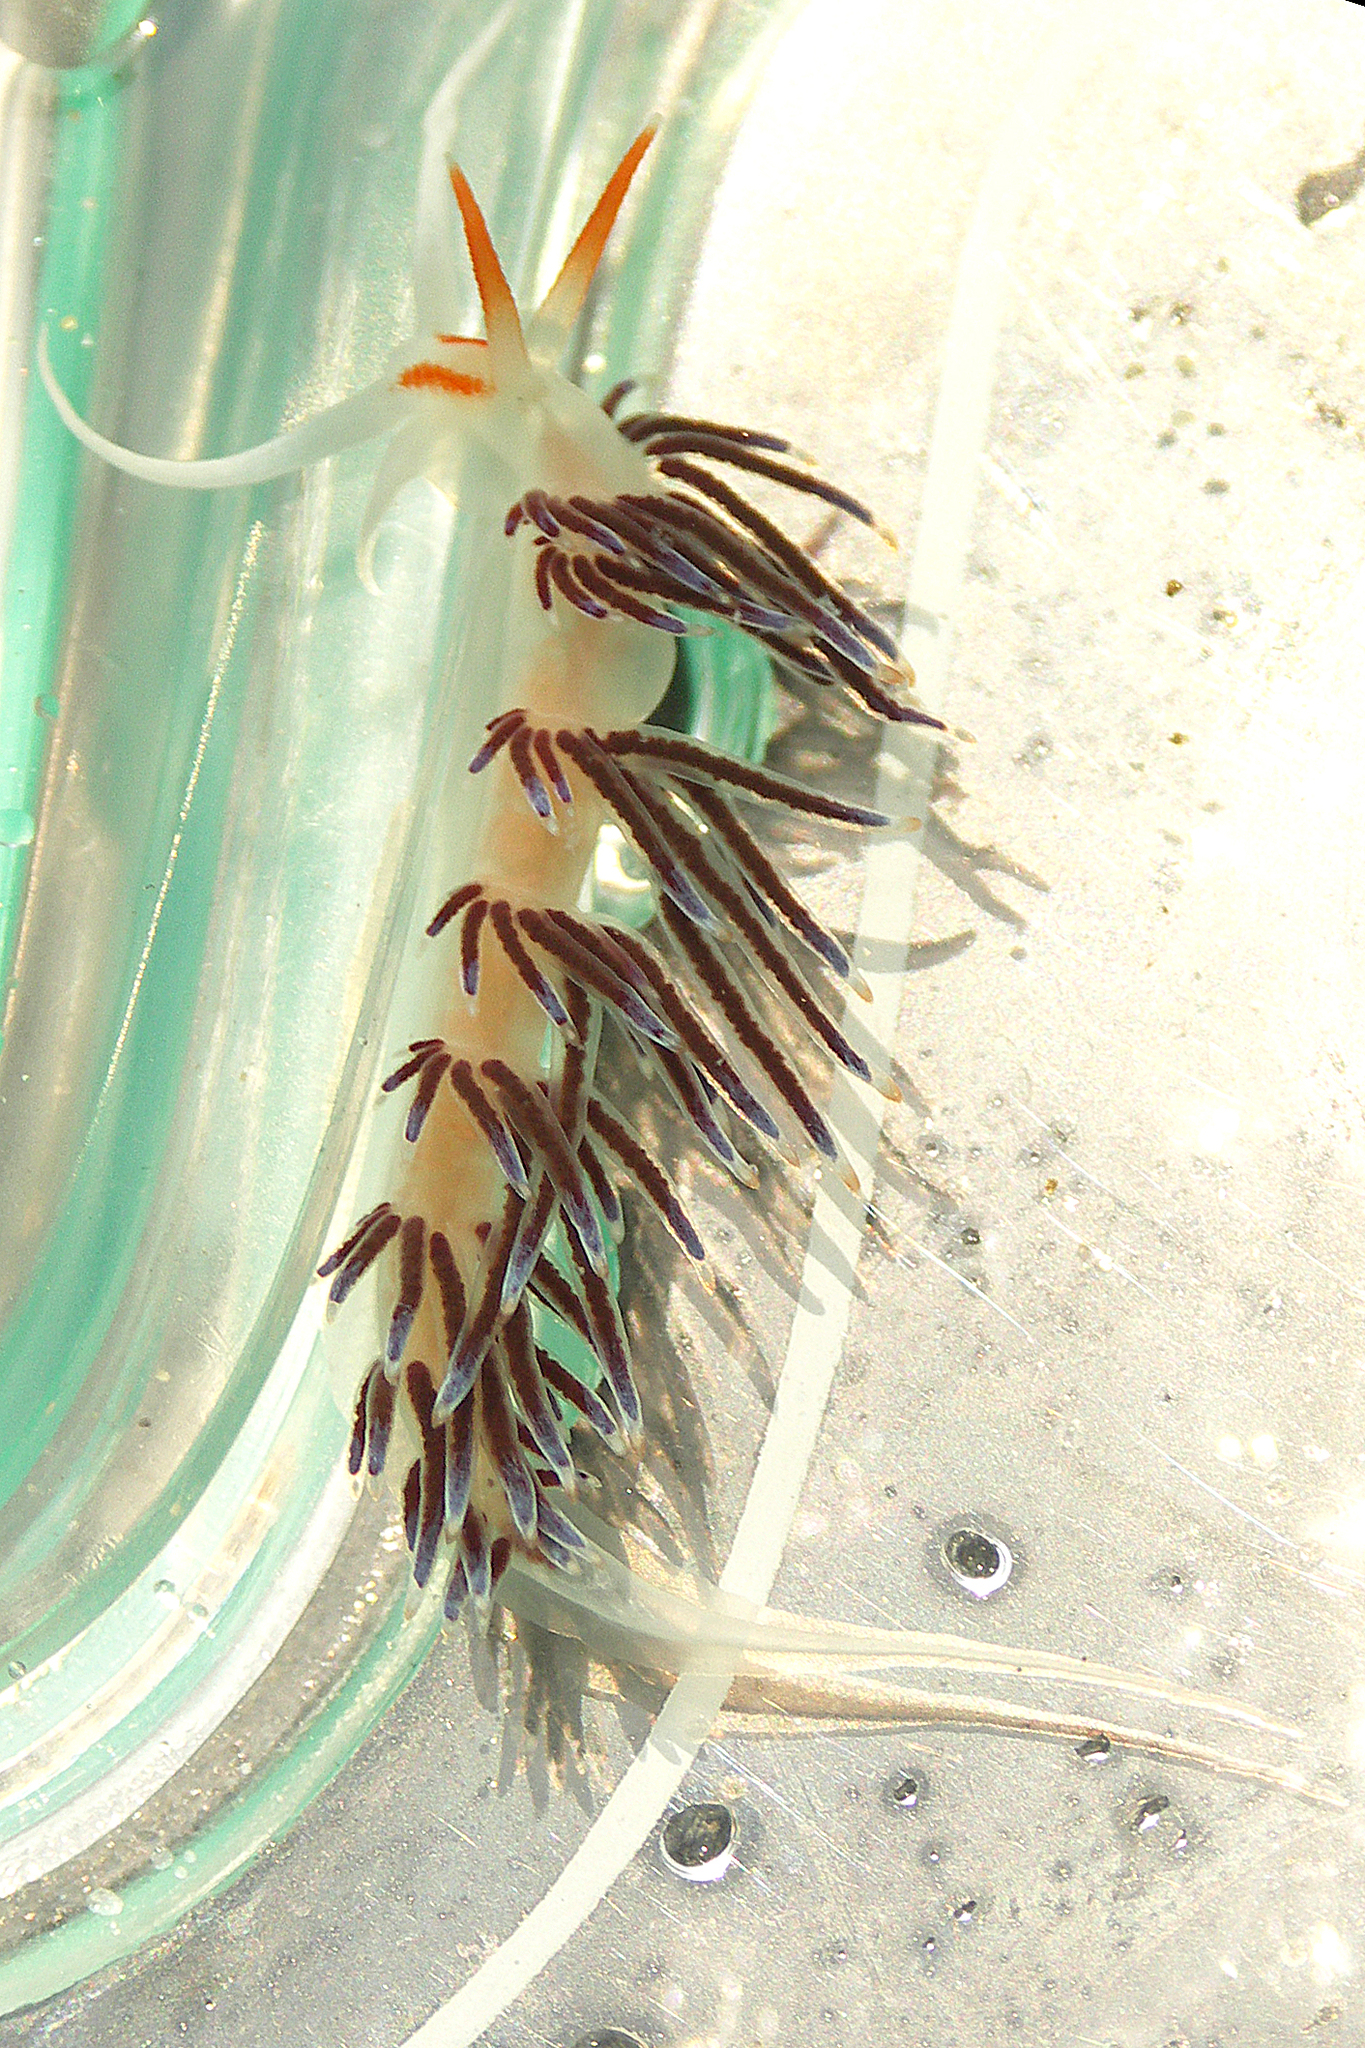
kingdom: Animalia
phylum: Mollusca
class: Gastropoda
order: Nudibranchia
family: Facelinidae
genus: Cratena
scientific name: Cratena peregrina
